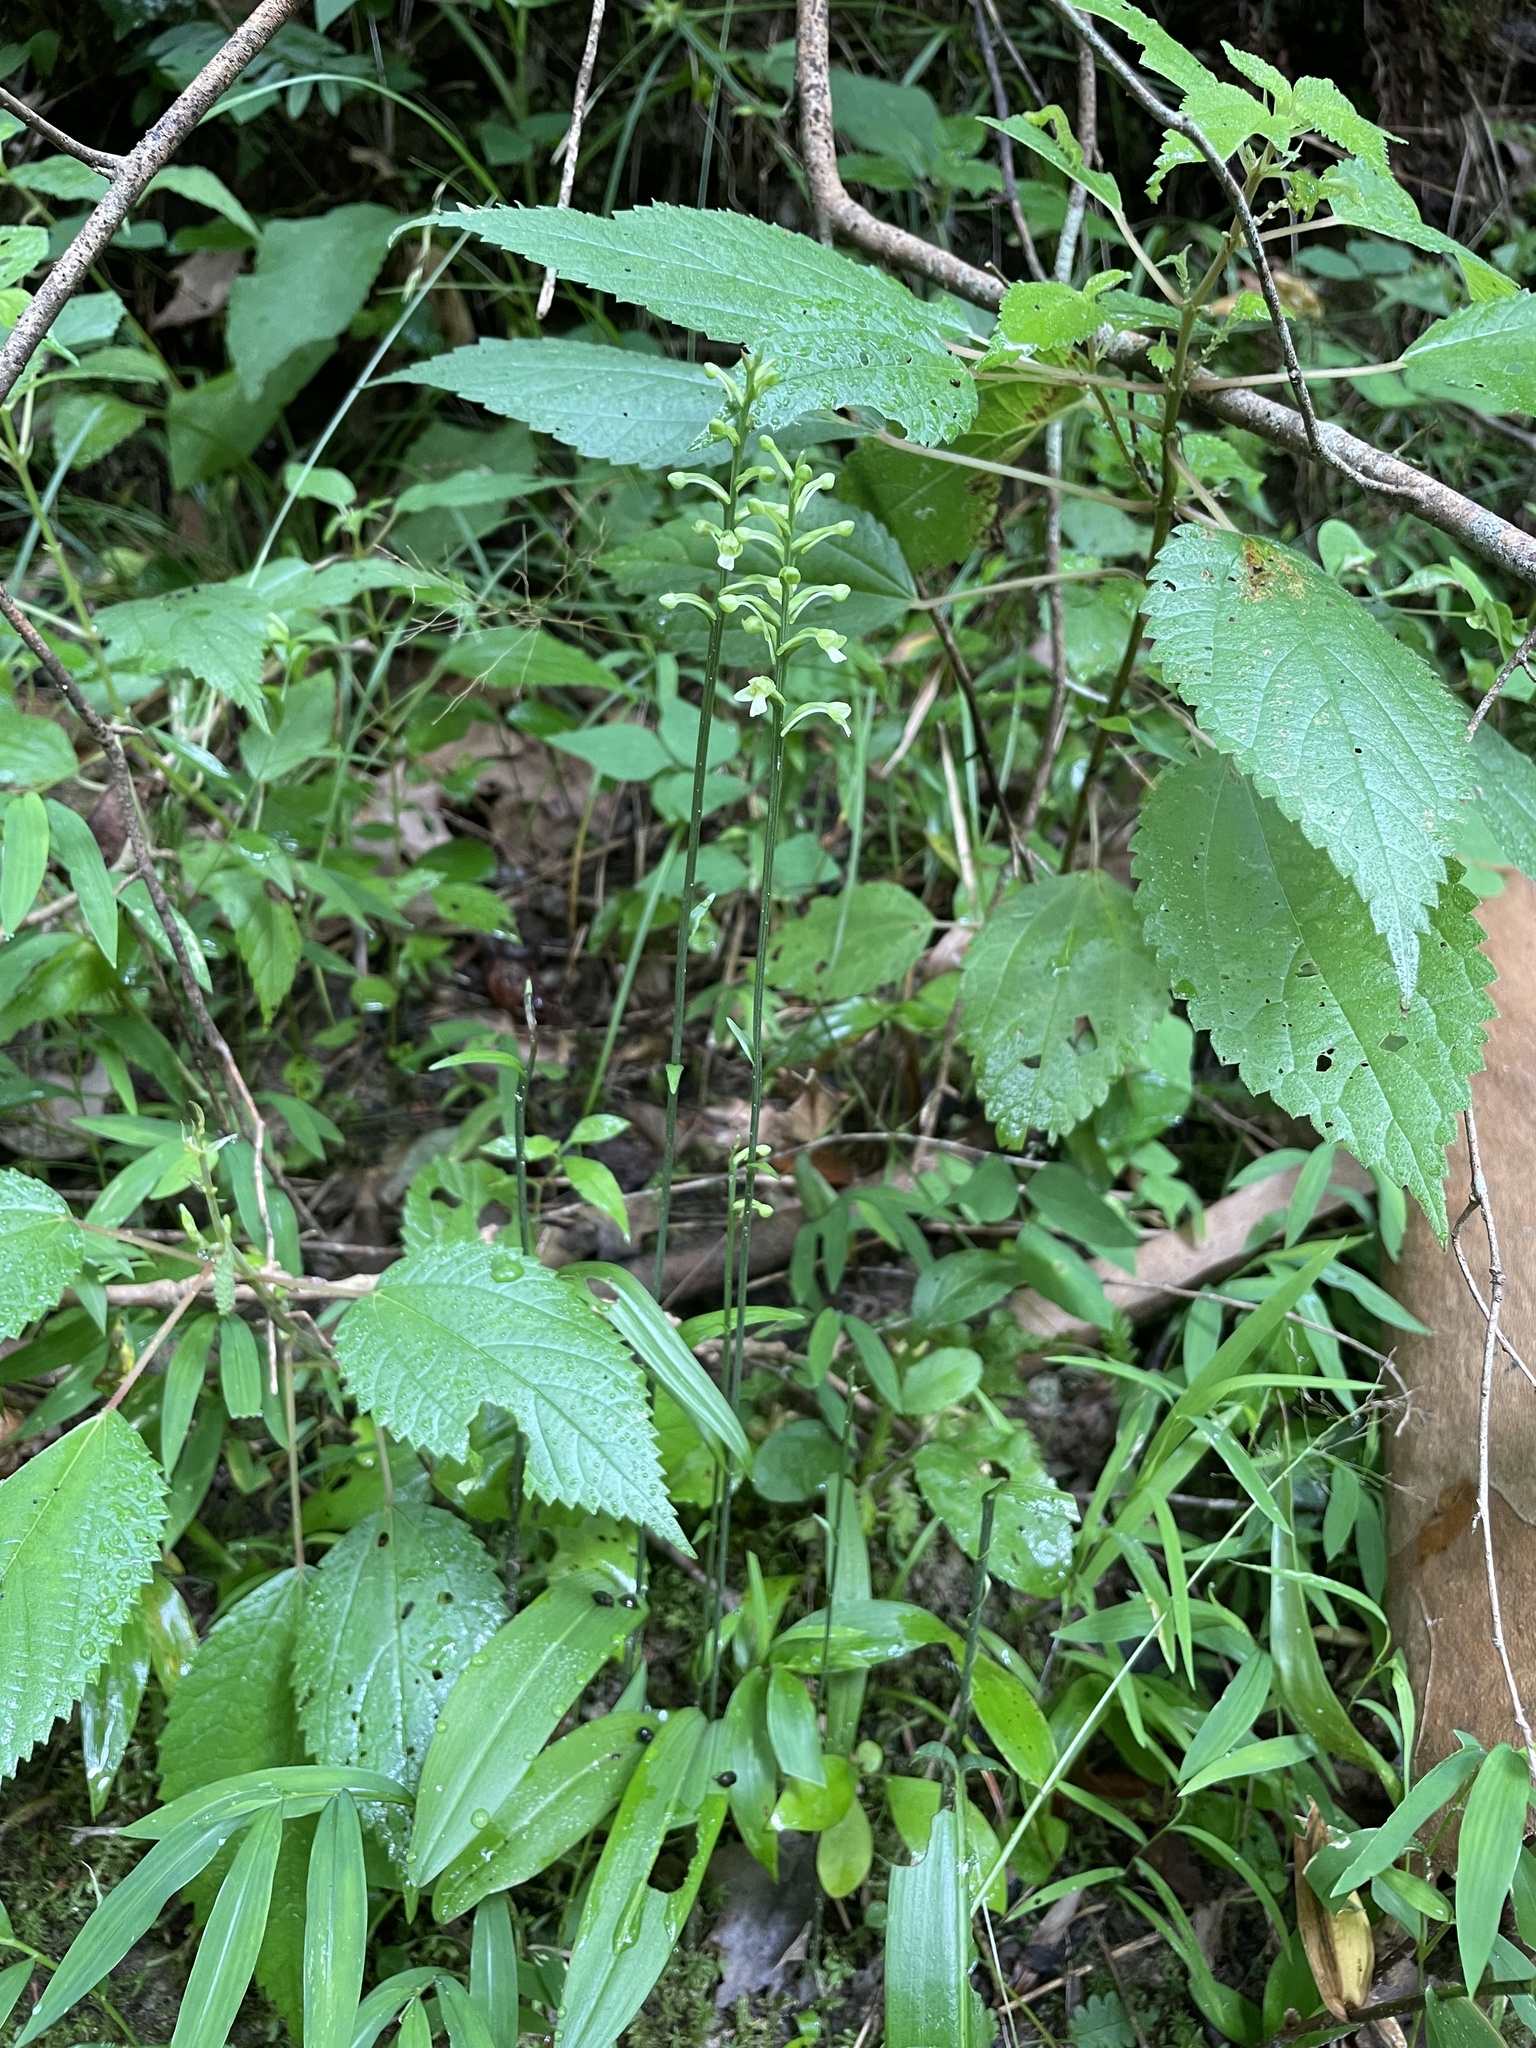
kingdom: Plantae
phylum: Tracheophyta
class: Liliopsida
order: Asparagales
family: Orchidaceae
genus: Platanthera
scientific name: Platanthera clavellata
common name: Club-spur orchid
